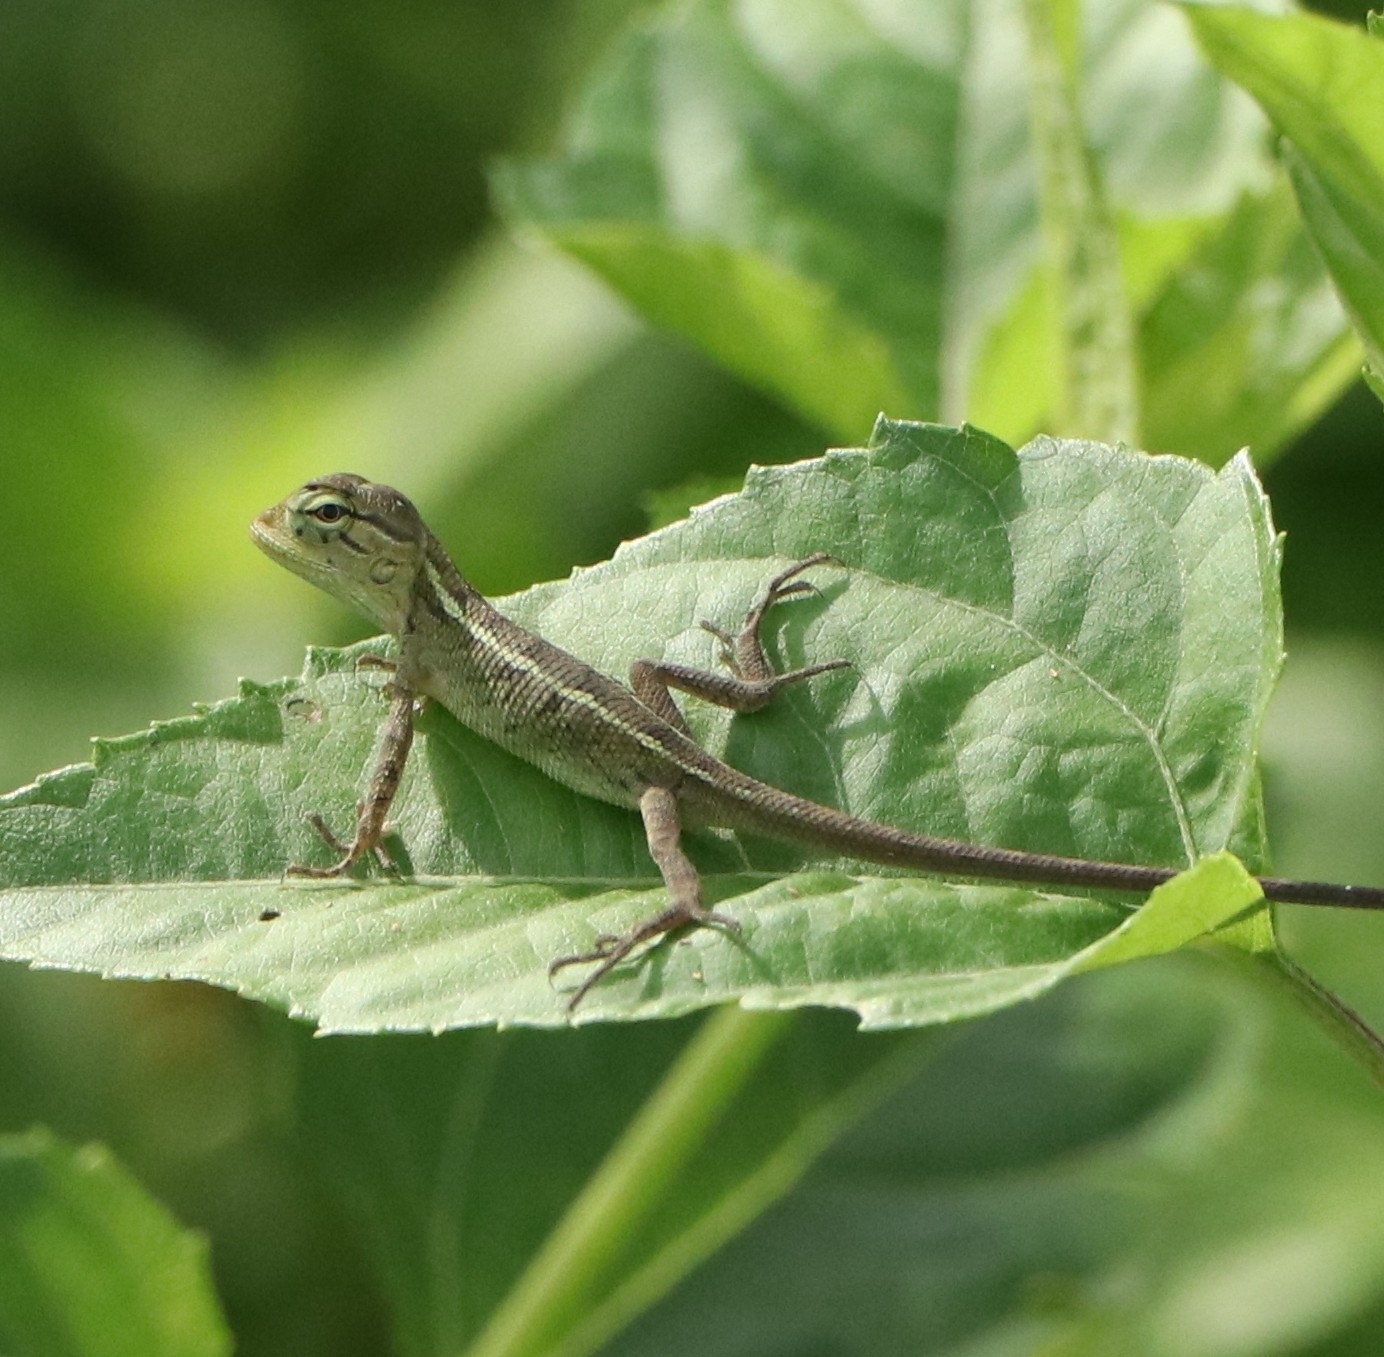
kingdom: Animalia
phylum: Chordata
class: Squamata
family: Agamidae
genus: Calotes
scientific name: Calotes versicolor
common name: Oriental garden lizard
